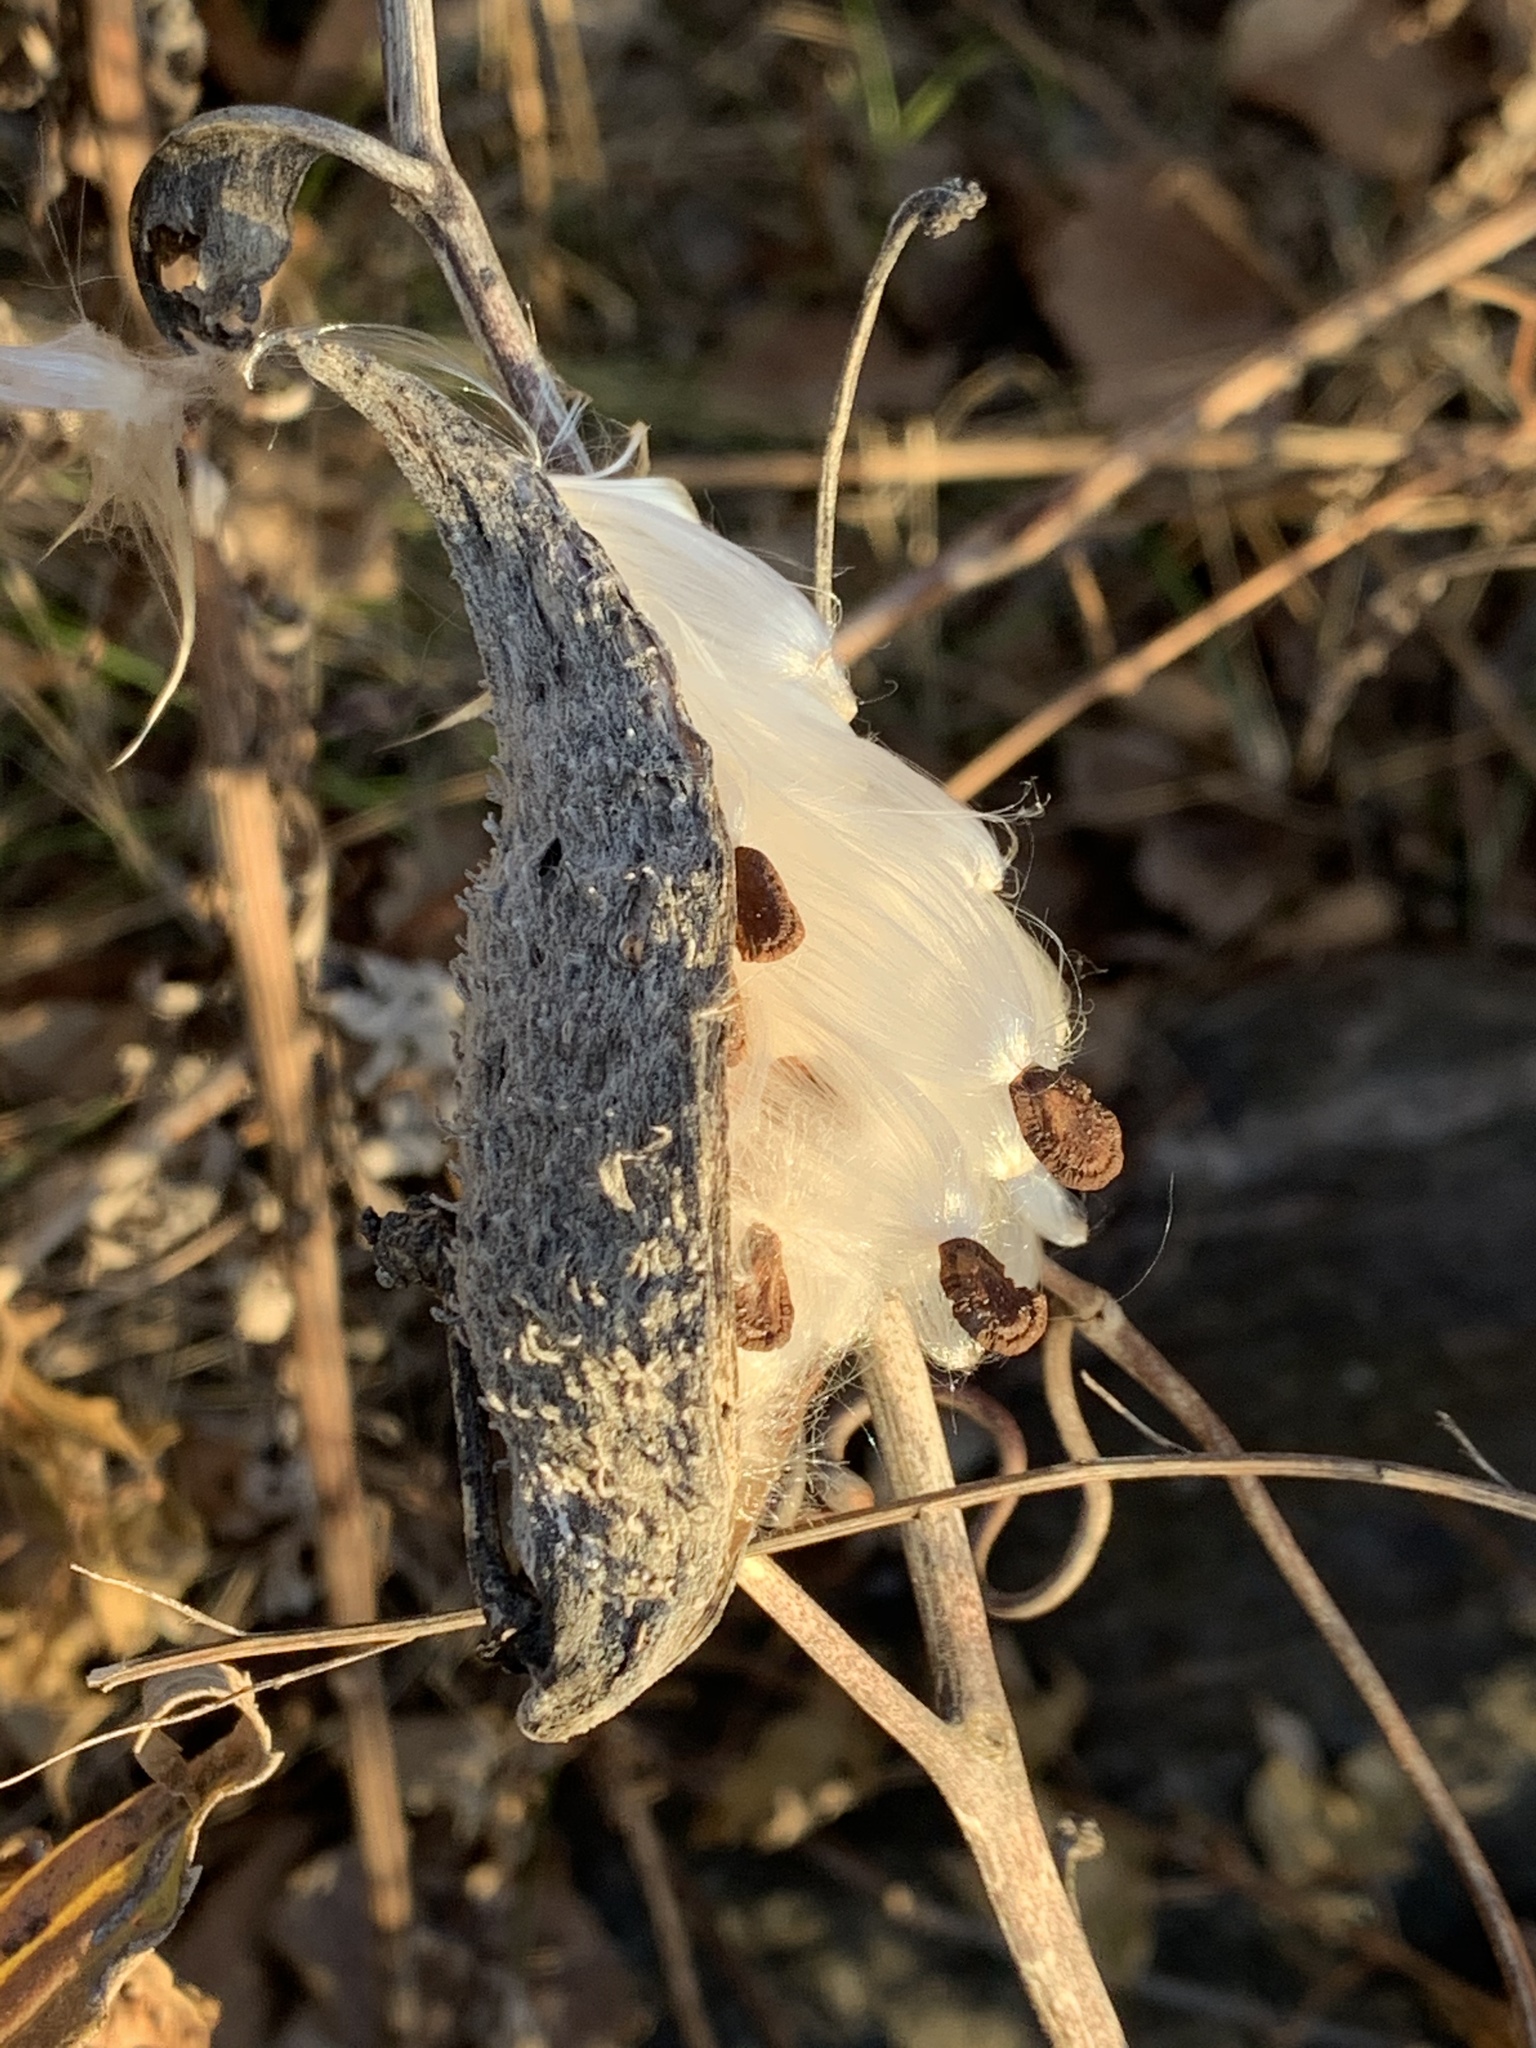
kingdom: Plantae
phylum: Tracheophyta
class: Magnoliopsida
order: Gentianales
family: Apocynaceae
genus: Asclepias
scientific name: Asclepias syriaca
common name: Common milkweed
